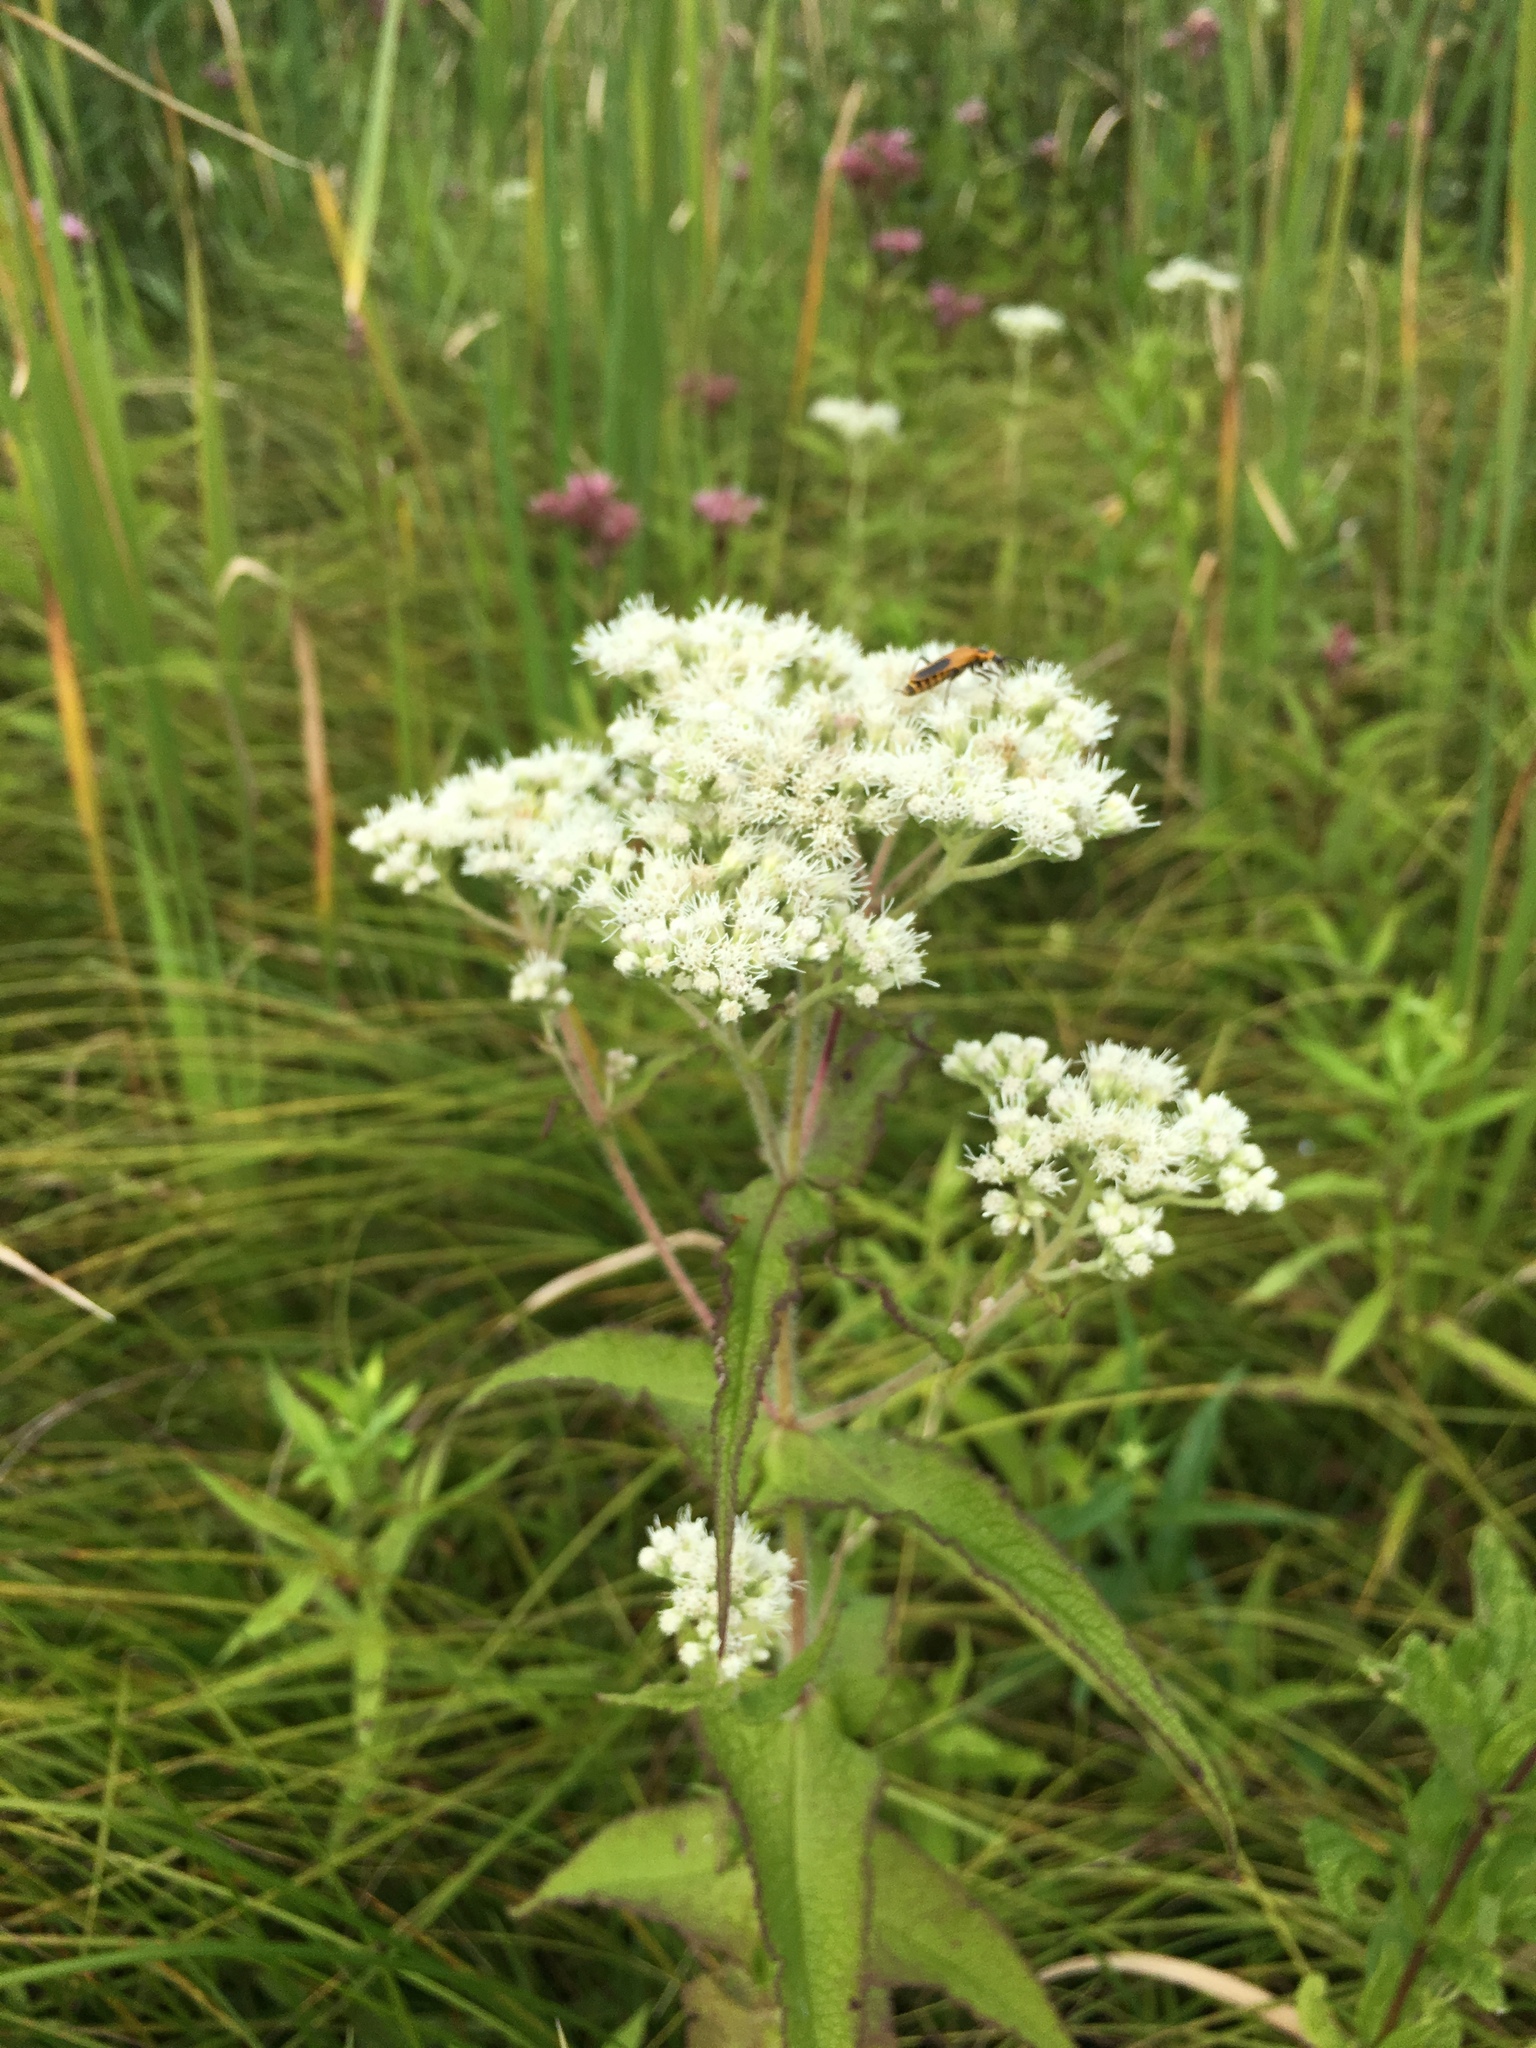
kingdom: Plantae
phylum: Tracheophyta
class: Magnoliopsida
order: Asterales
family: Asteraceae
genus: Eupatorium
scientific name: Eupatorium perfoliatum
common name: Boneset
